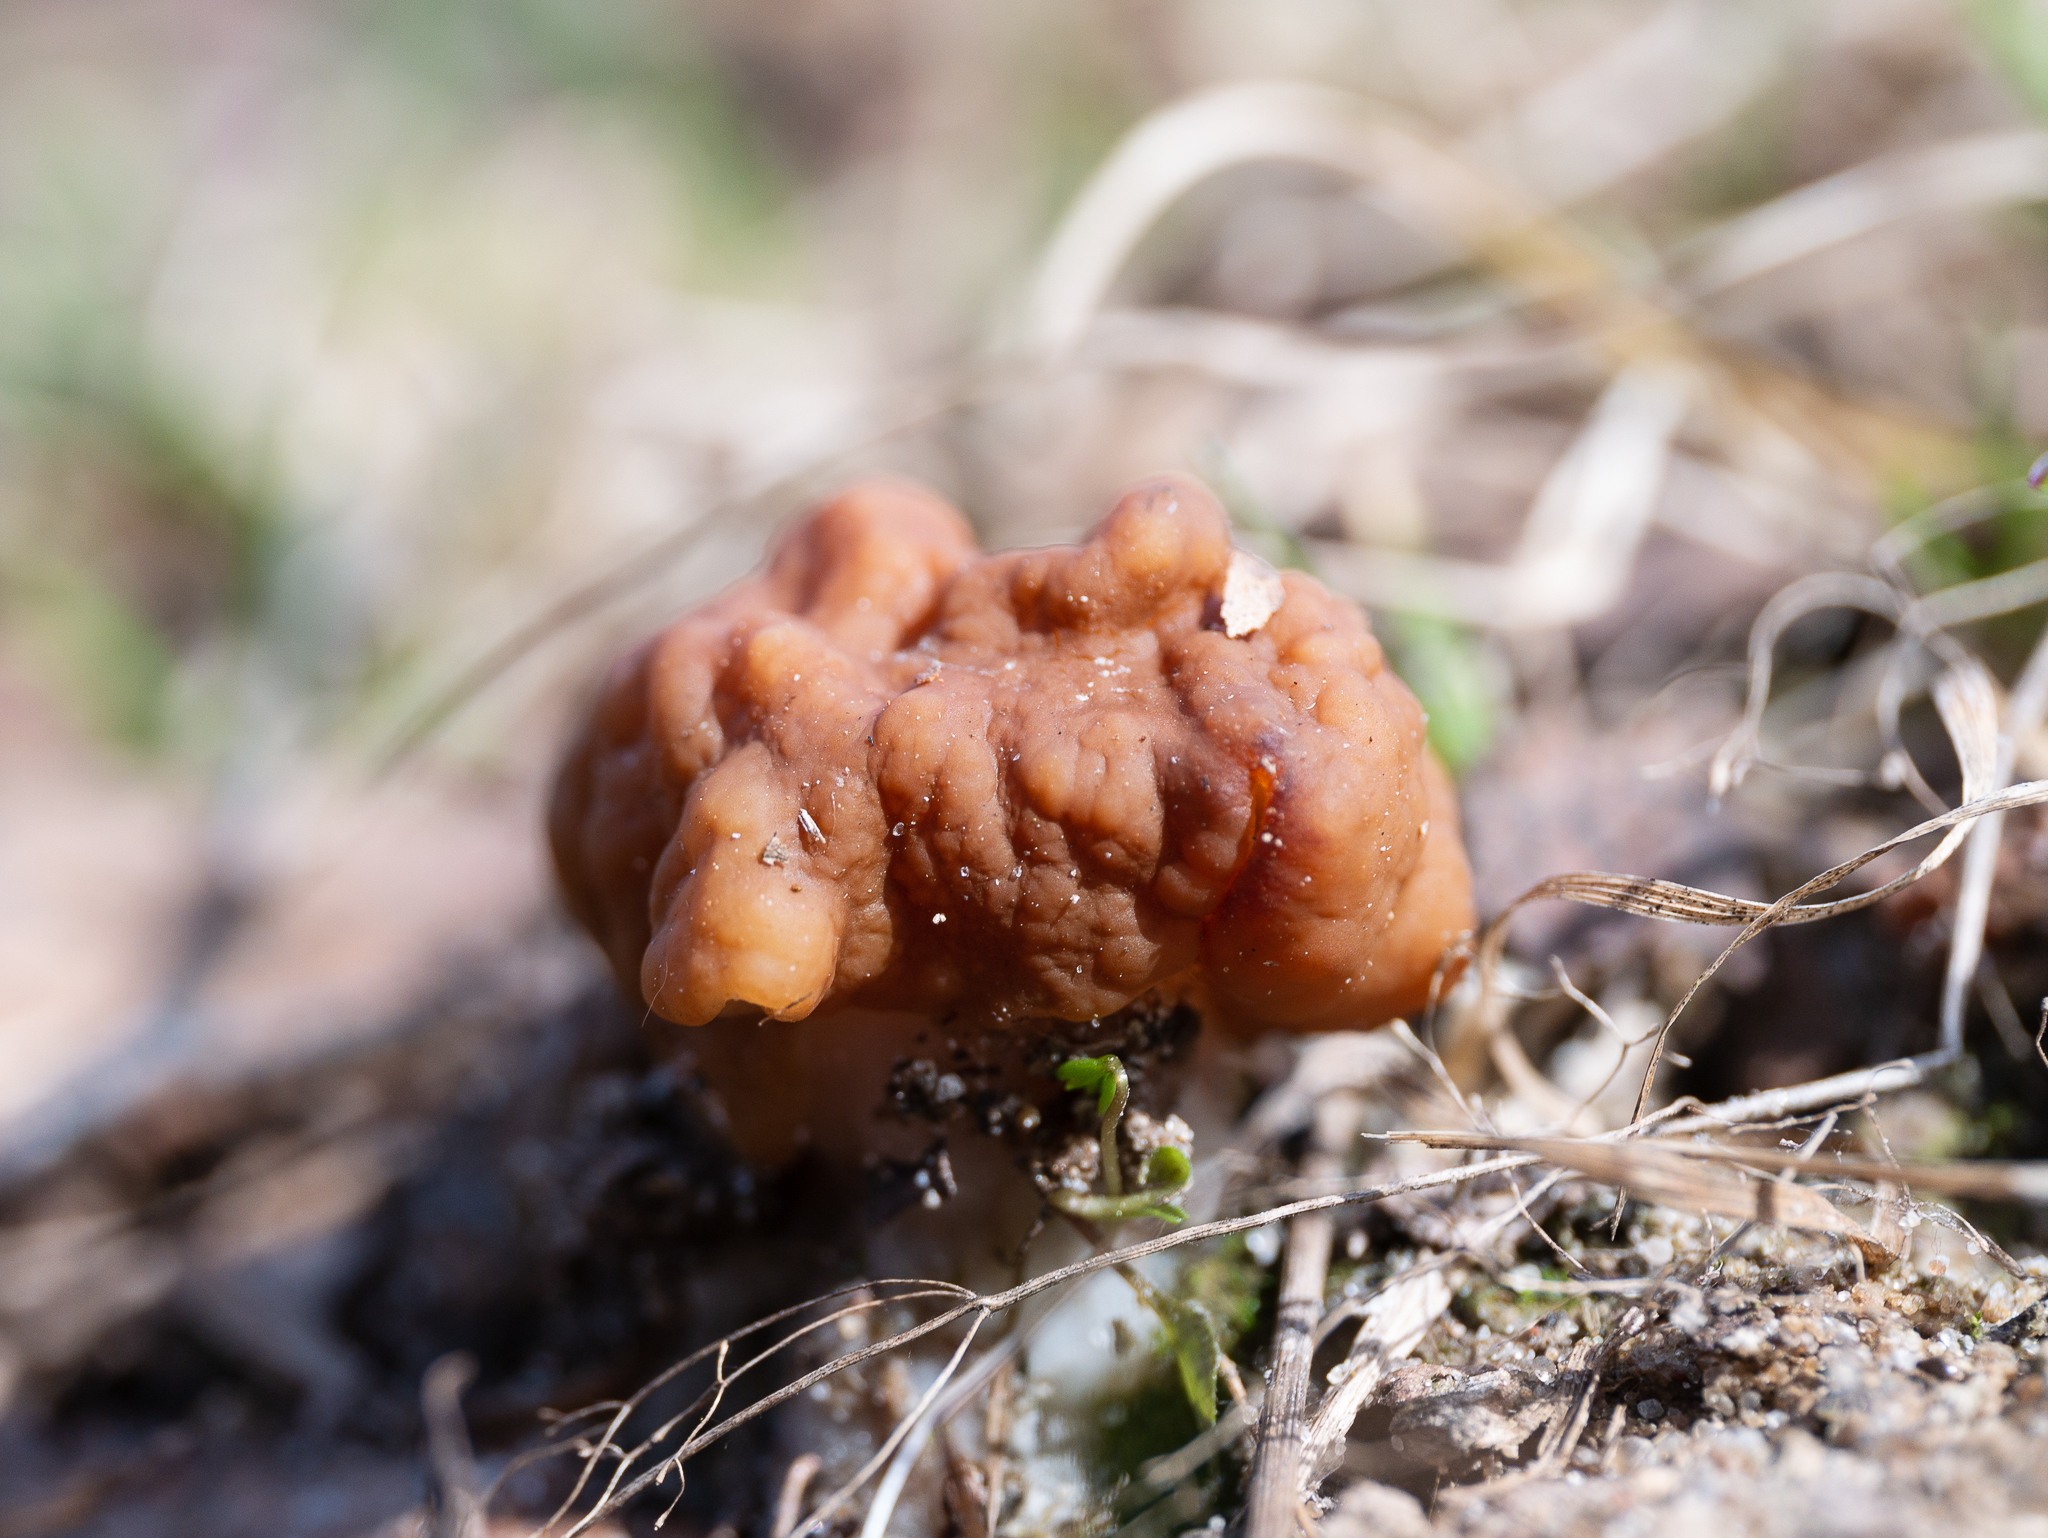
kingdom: Fungi
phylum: Ascomycota
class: Pezizomycetes
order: Pezizales
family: Discinaceae
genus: Gyromitra
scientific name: Gyromitra gigas
